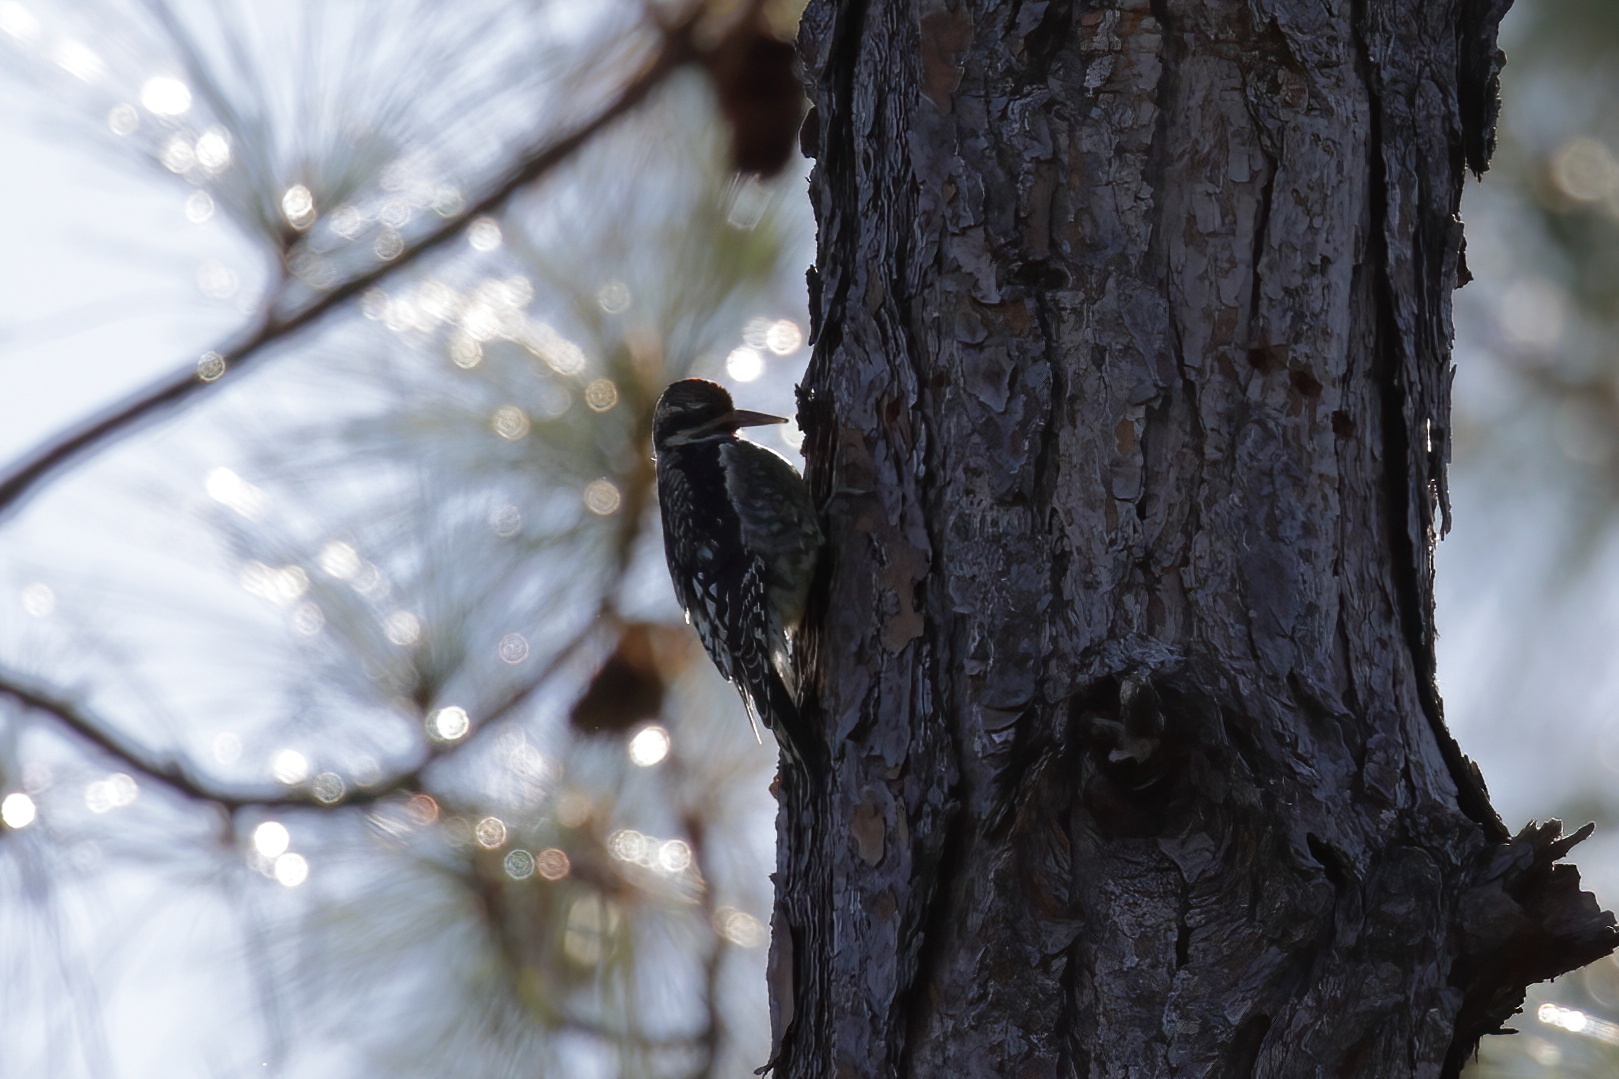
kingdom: Animalia
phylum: Chordata
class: Aves
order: Piciformes
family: Picidae
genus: Sphyrapicus
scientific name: Sphyrapicus varius
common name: Yellow-bellied sapsucker
